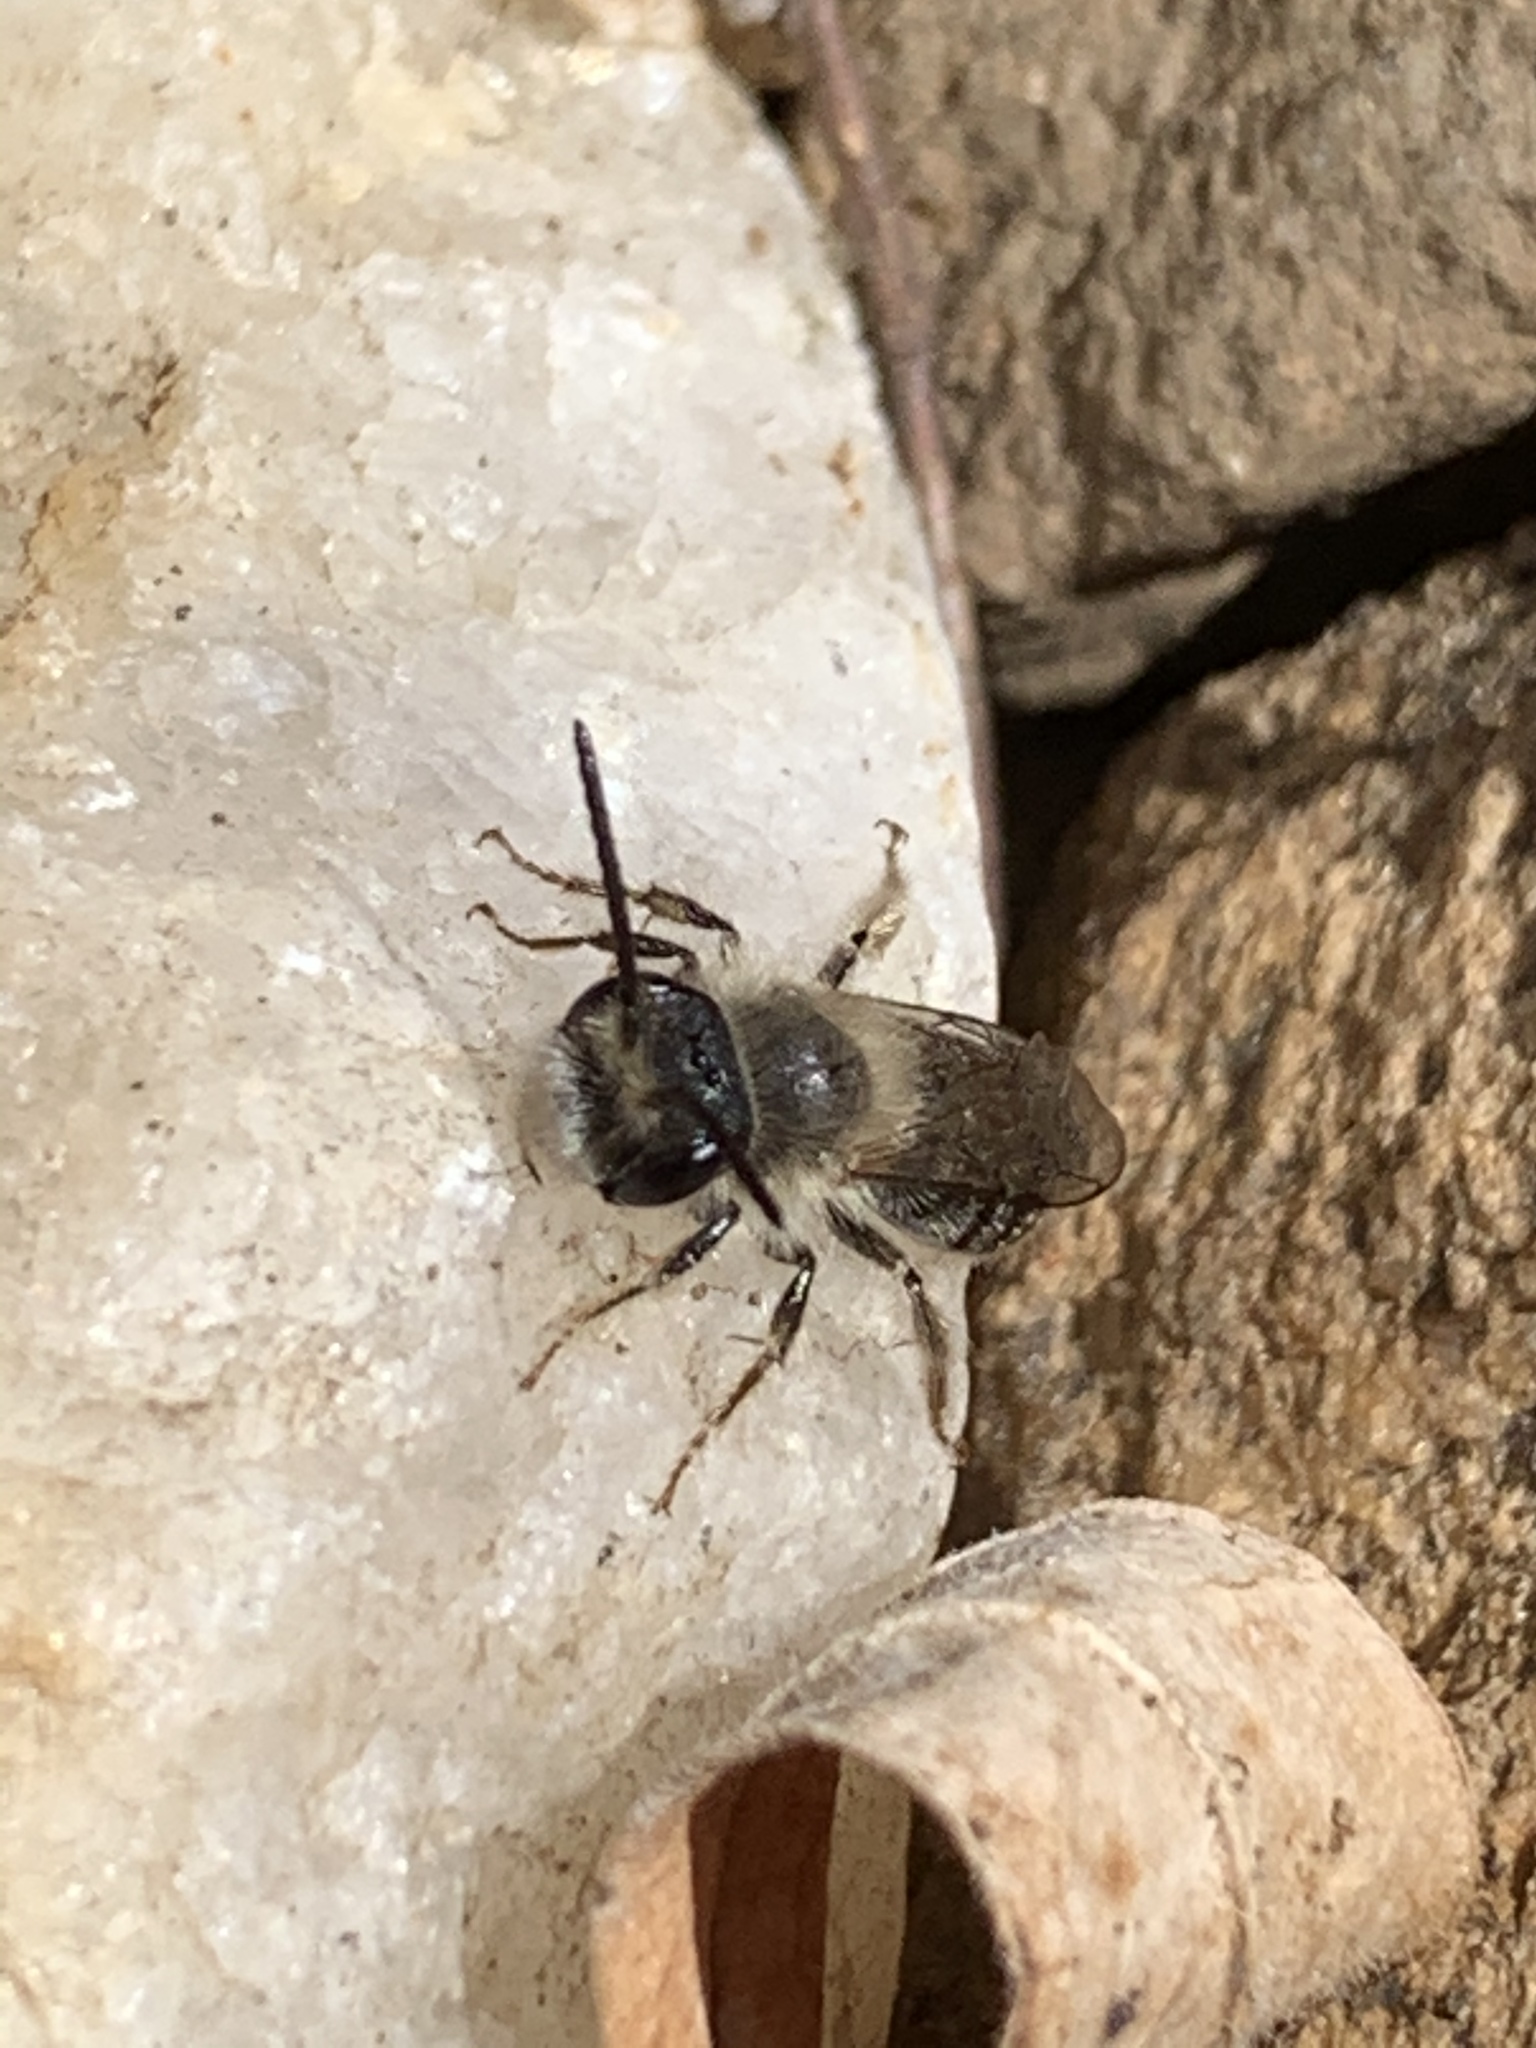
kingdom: Animalia
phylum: Arthropoda
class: Insecta
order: Hymenoptera
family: Andrenidae
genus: Andrena
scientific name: Andrena
